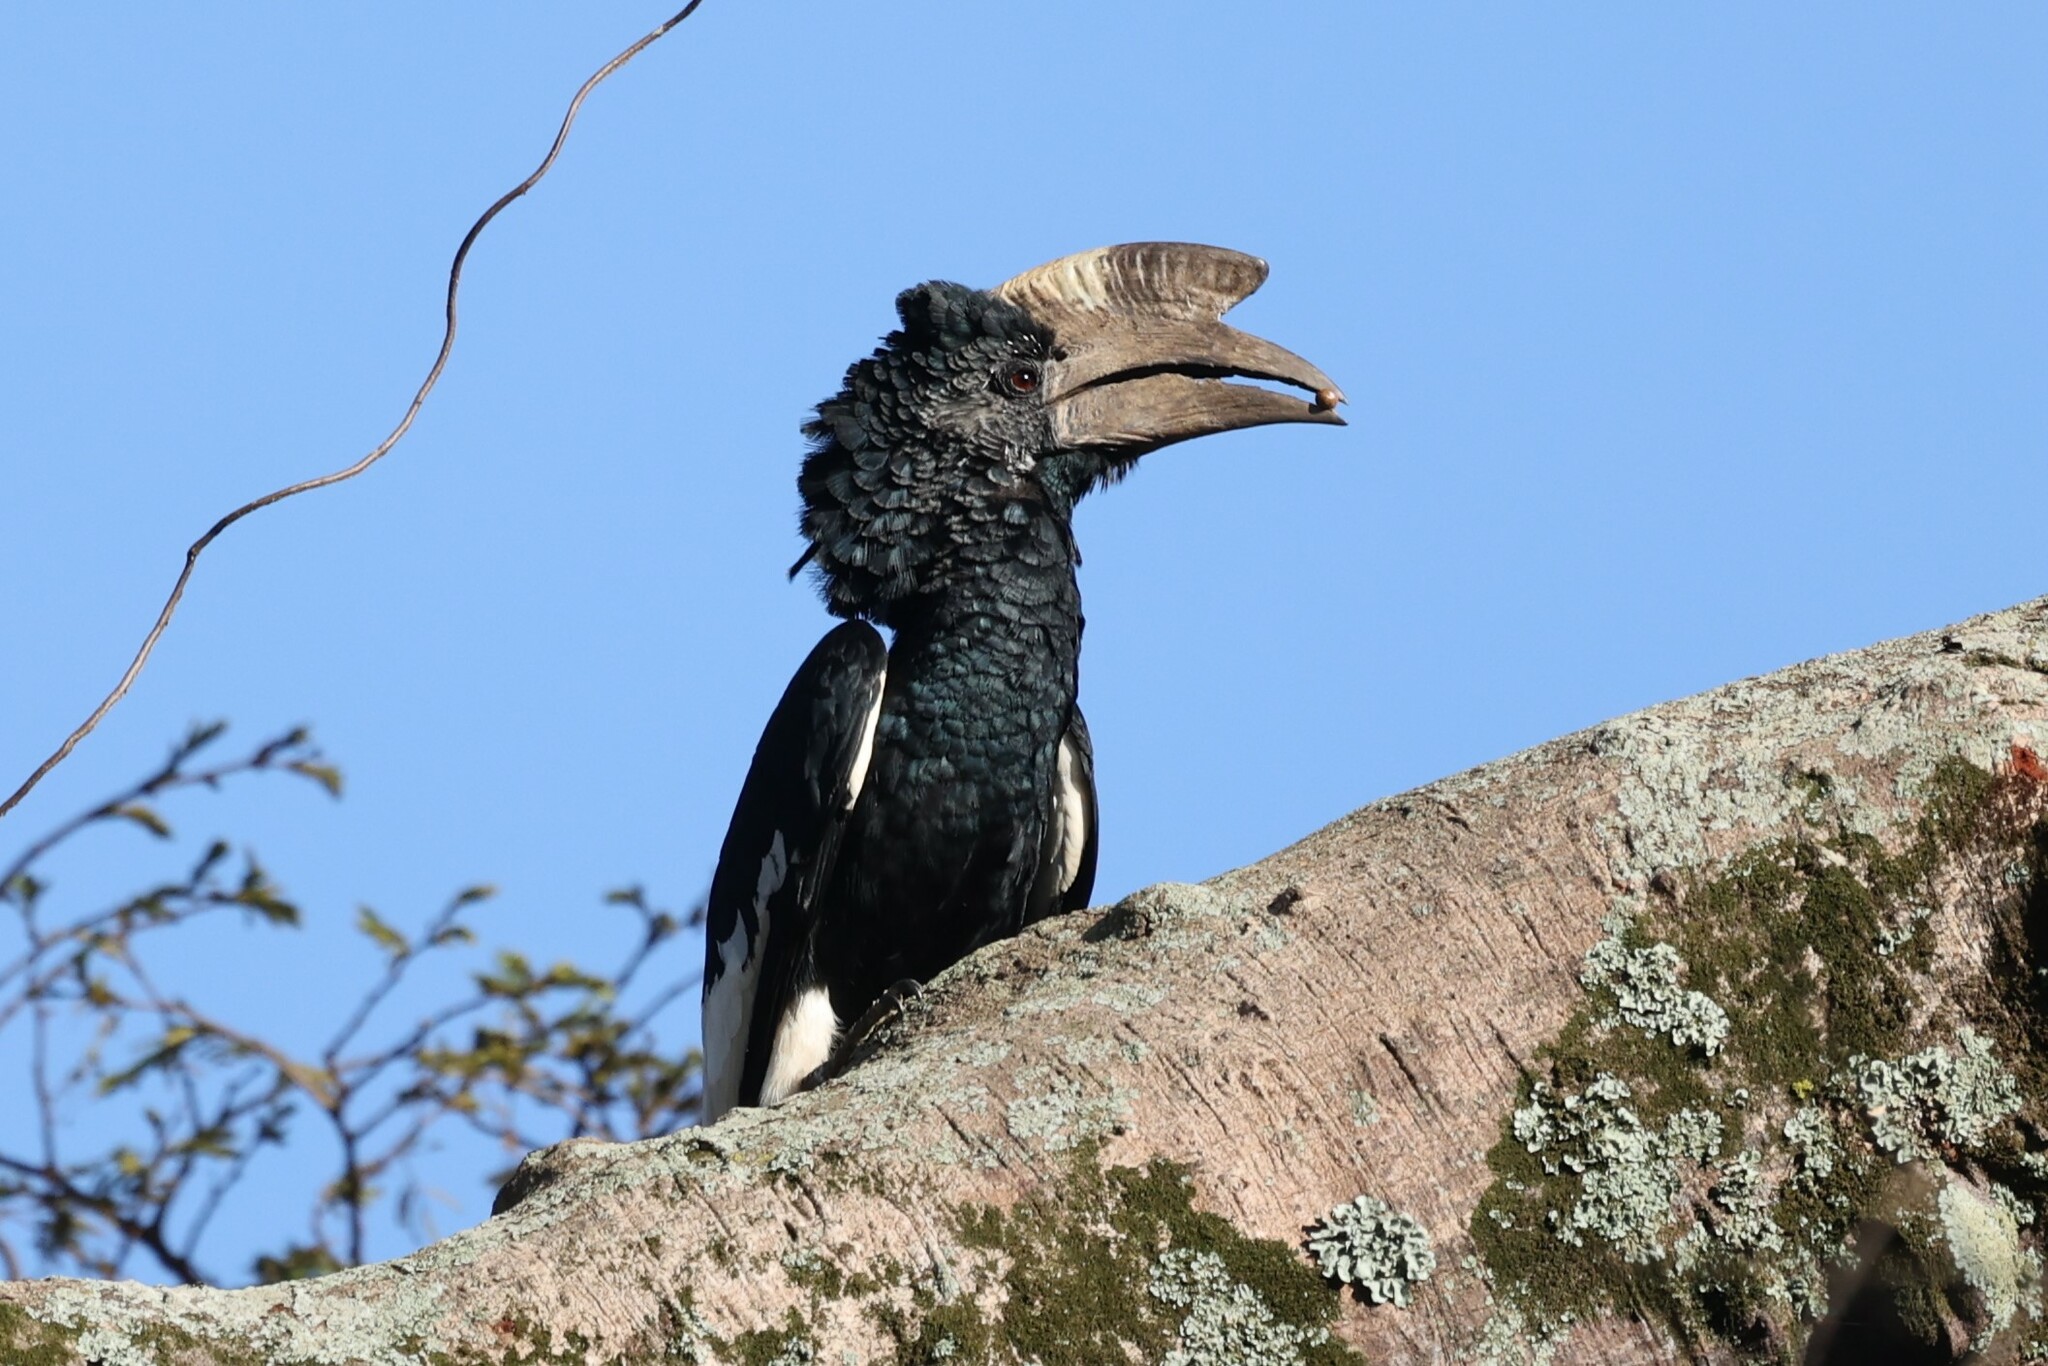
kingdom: Animalia
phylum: Chordata
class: Aves
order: Bucerotiformes
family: Bucerotidae
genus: Bycanistes
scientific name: Bycanistes subcylindricus
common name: Black-and-white-casqued hornbill
